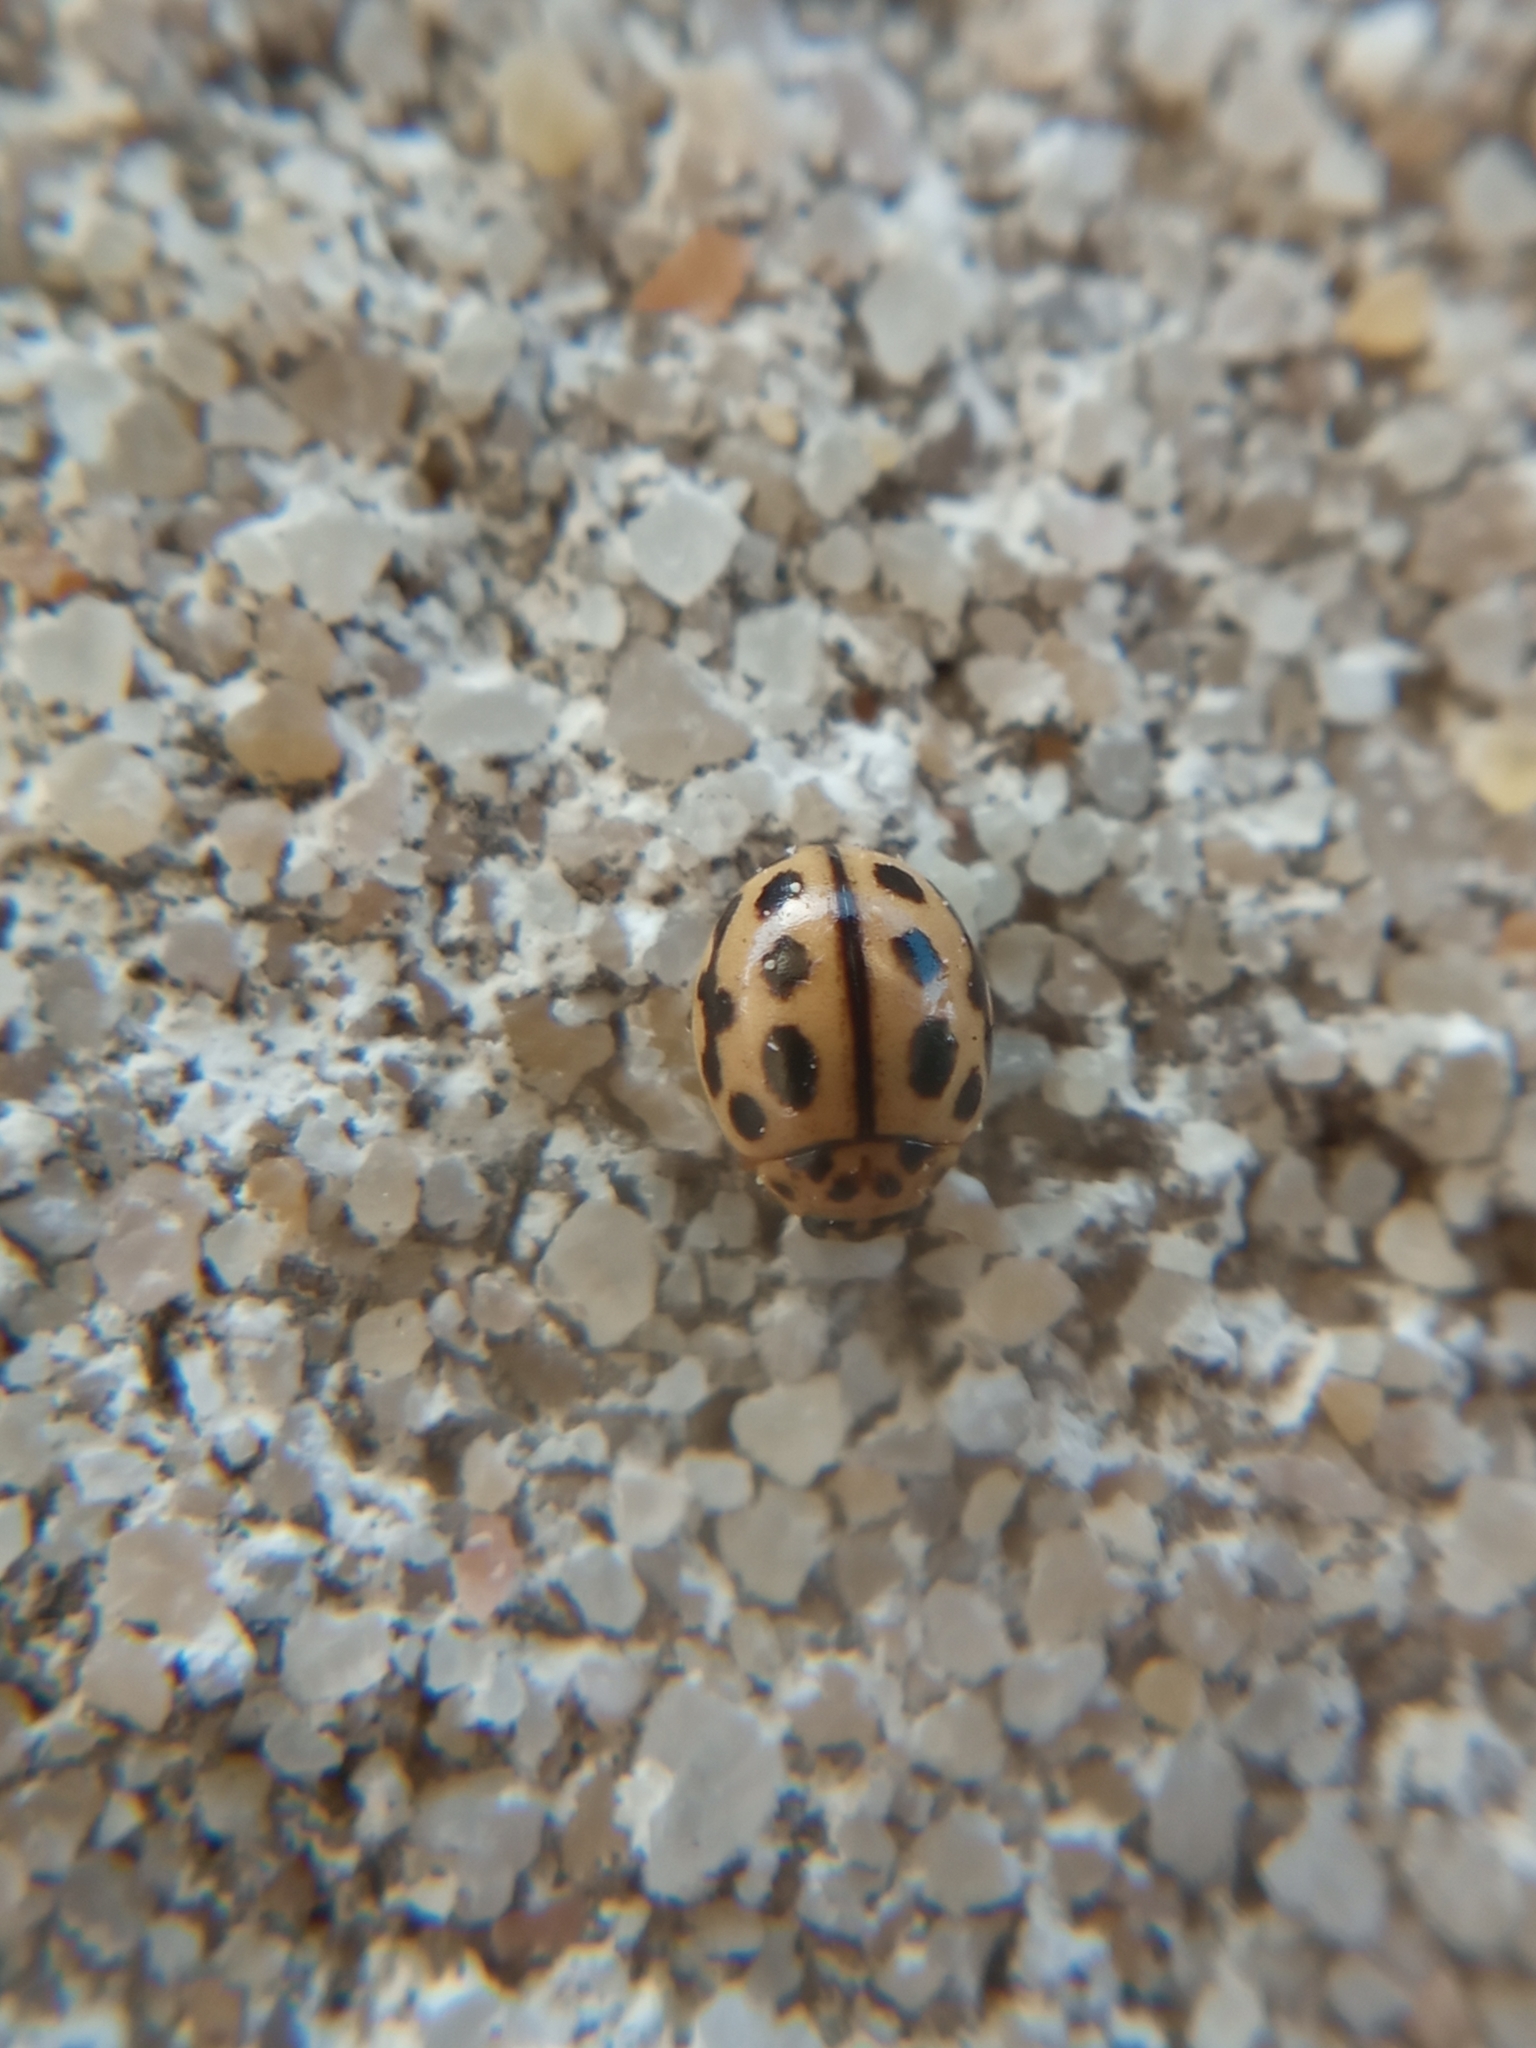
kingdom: Animalia
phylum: Arthropoda
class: Insecta
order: Coleoptera
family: Coccinellidae
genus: Tytthaspis
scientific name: Tytthaspis sedecimpunctata
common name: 16-spot ladybird
